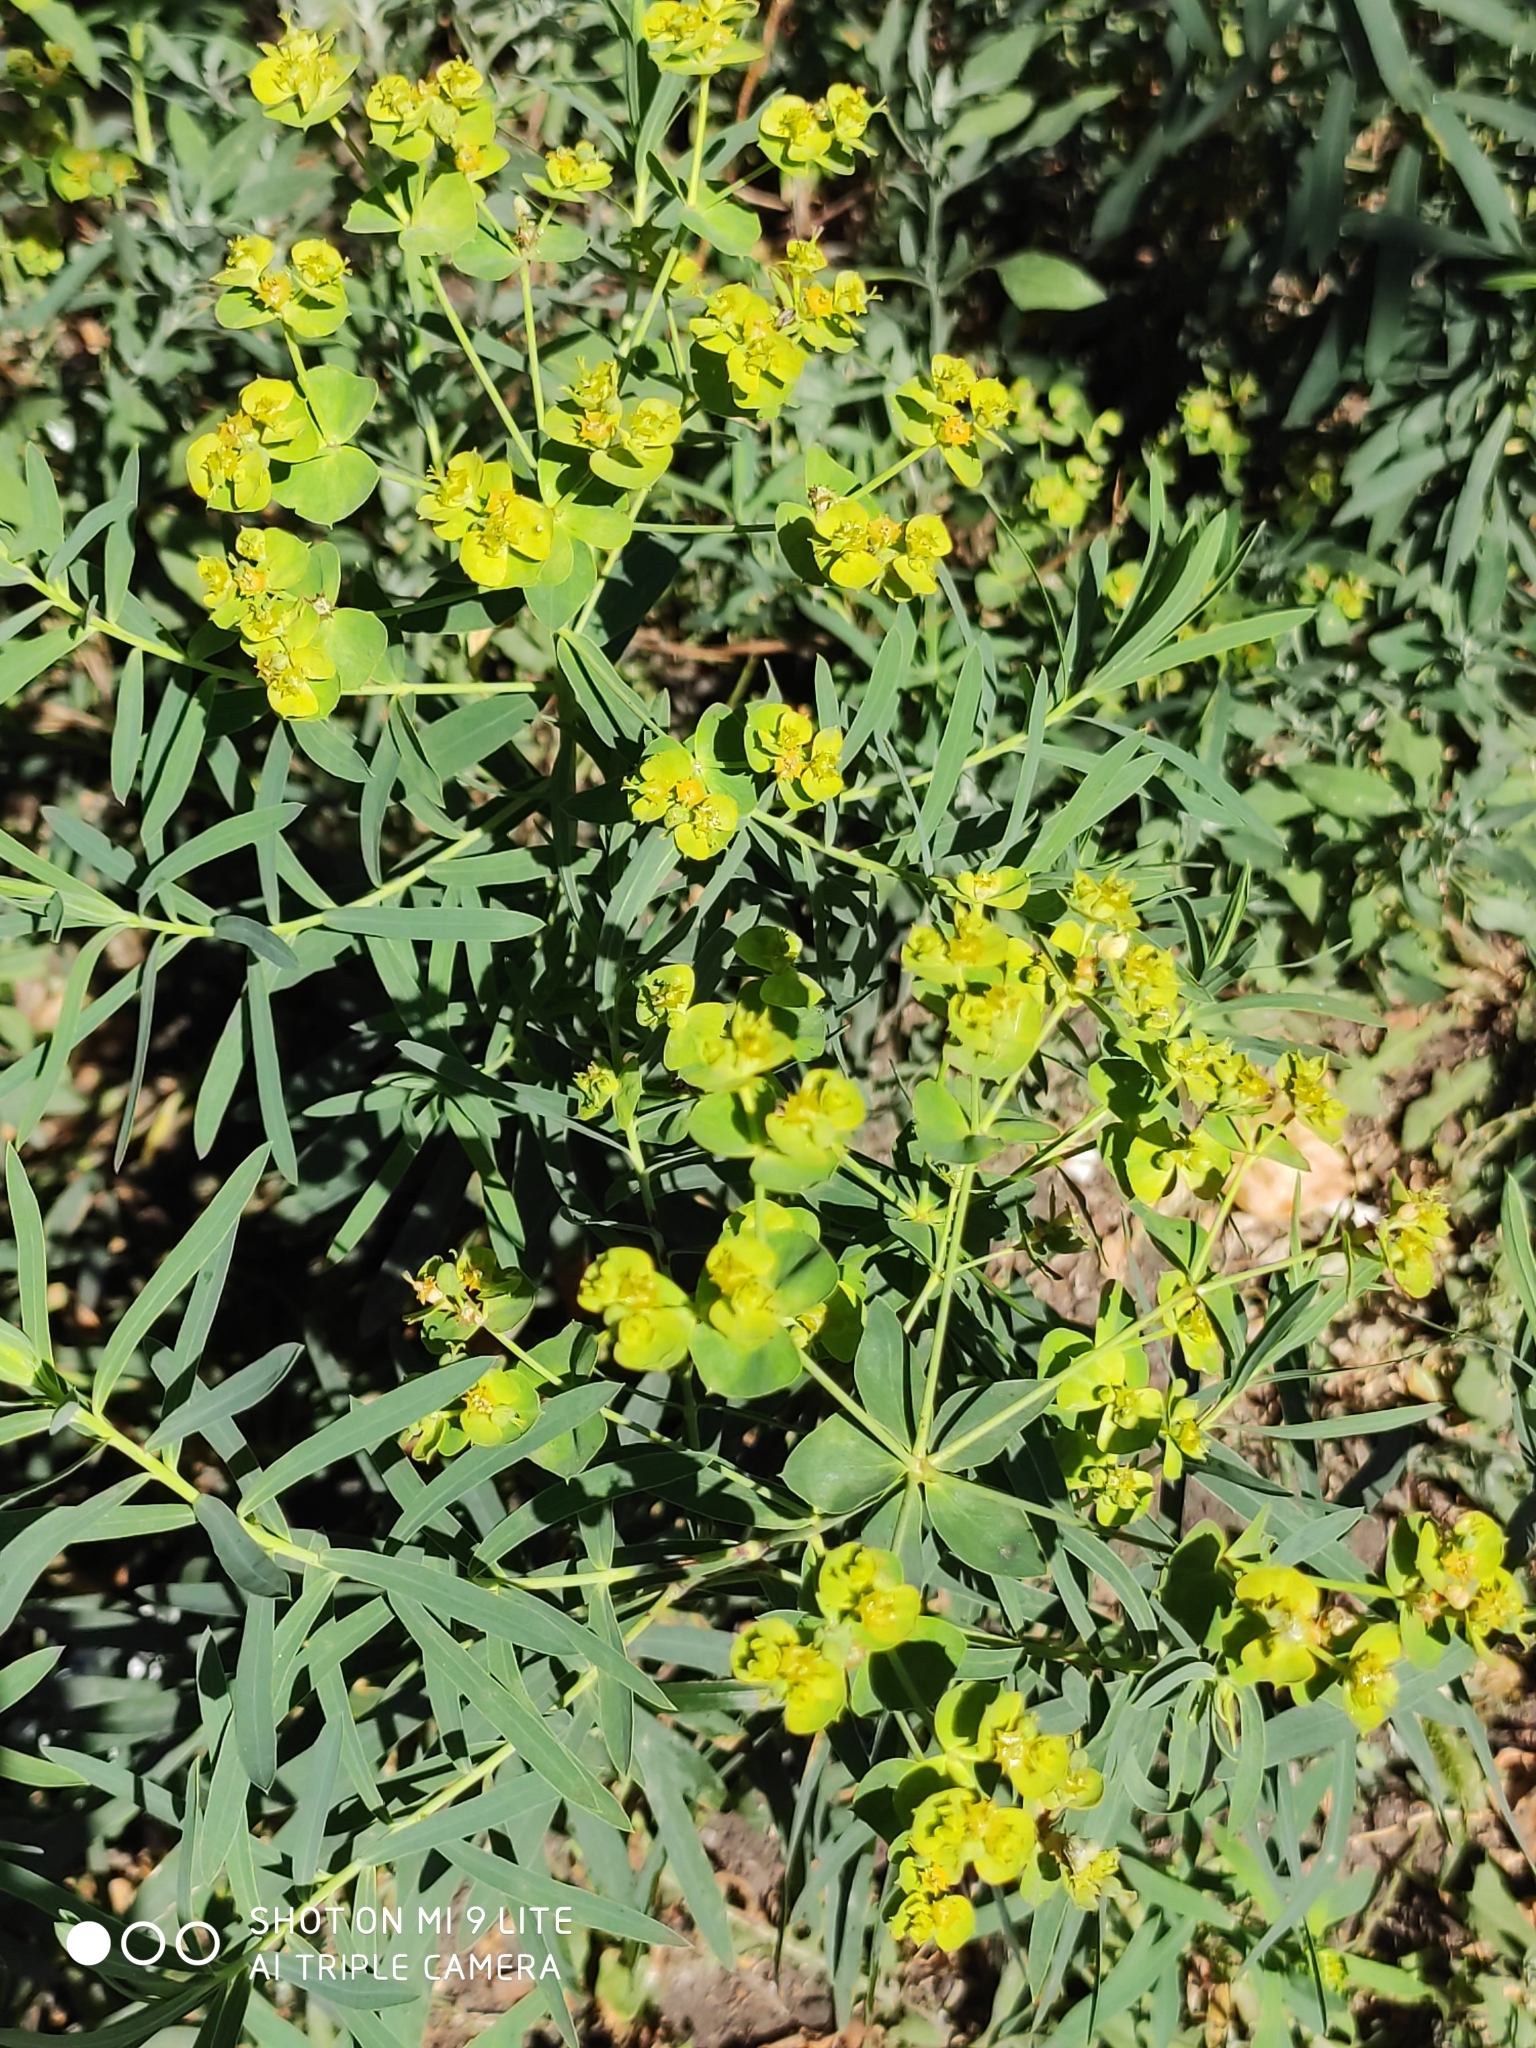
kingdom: Plantae
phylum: Tracheophyta
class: Magnoliopsida
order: Malpighiales
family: Euphorbiaceae
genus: Euphorbia
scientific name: Euphorbia virgata
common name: Leafy spurge
